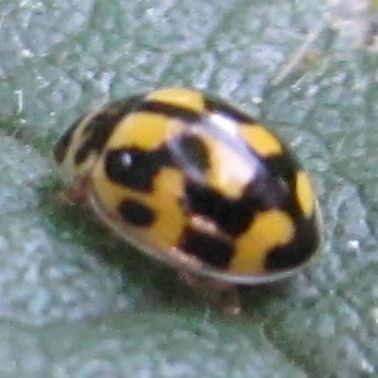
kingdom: Animalia
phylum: Arthropoda
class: Insecta
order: Coleoptera
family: Coccinellidae
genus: Propylaea
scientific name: Propylaea quatuordecimpunctata
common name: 14-spotted ladybird beetle
